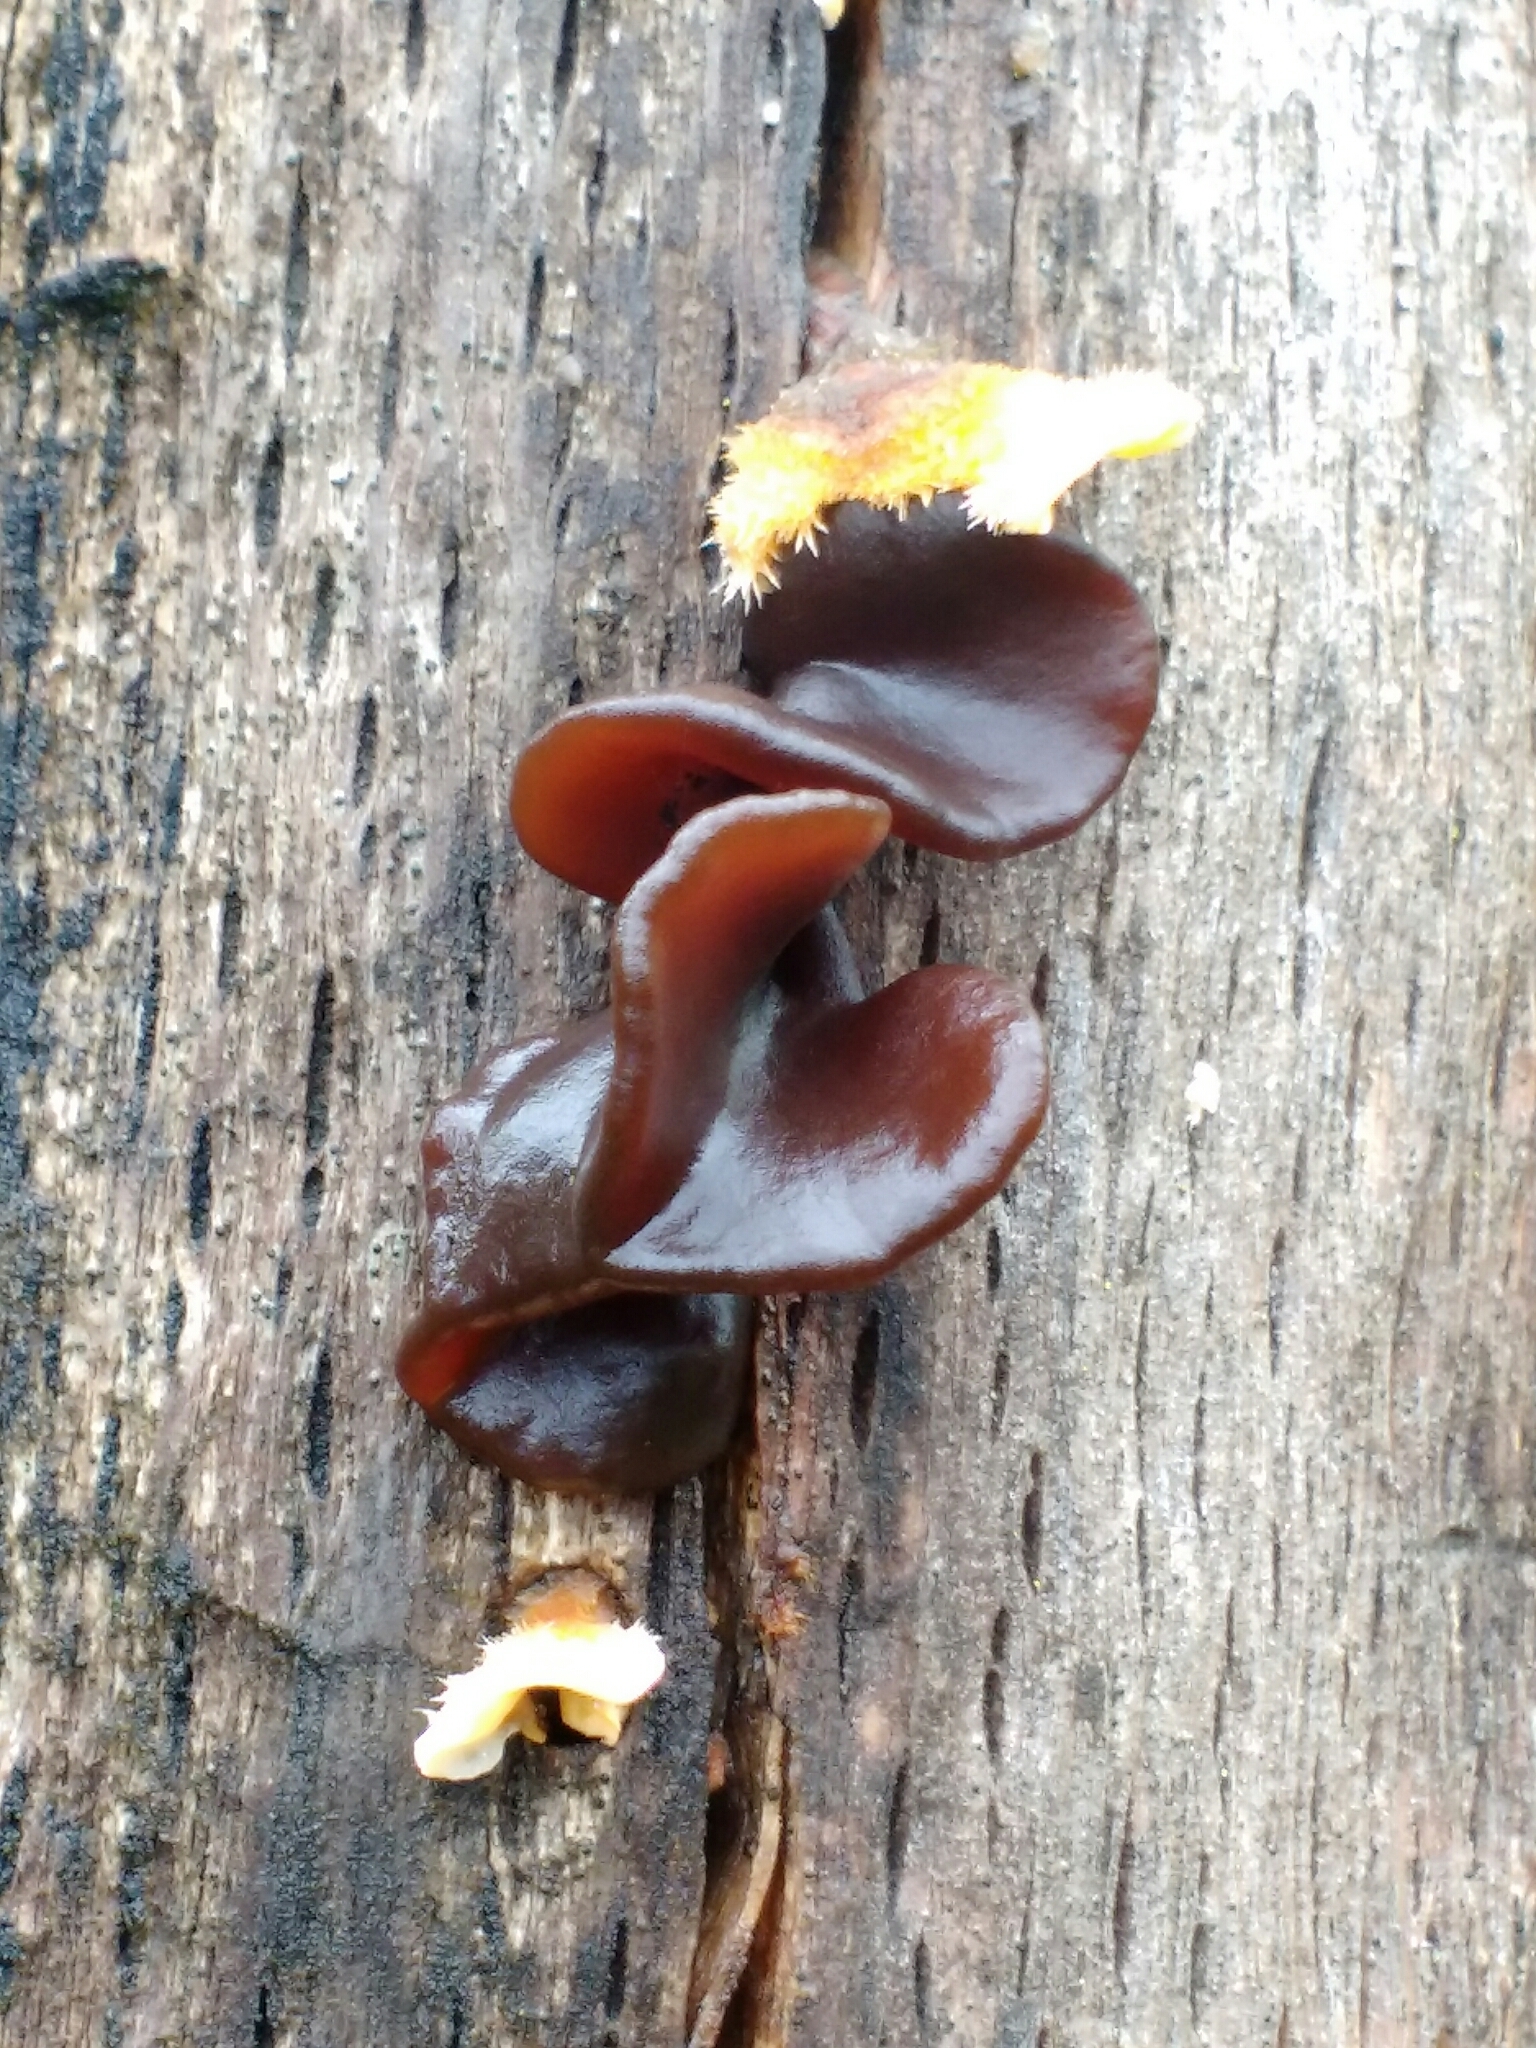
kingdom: Fungi
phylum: Basidiomycota
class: Tremellomycetes
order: Tremellales
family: Tremellaceae
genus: Phaeotremella
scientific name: Phaeotremella foliacea
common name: Leafy brain
